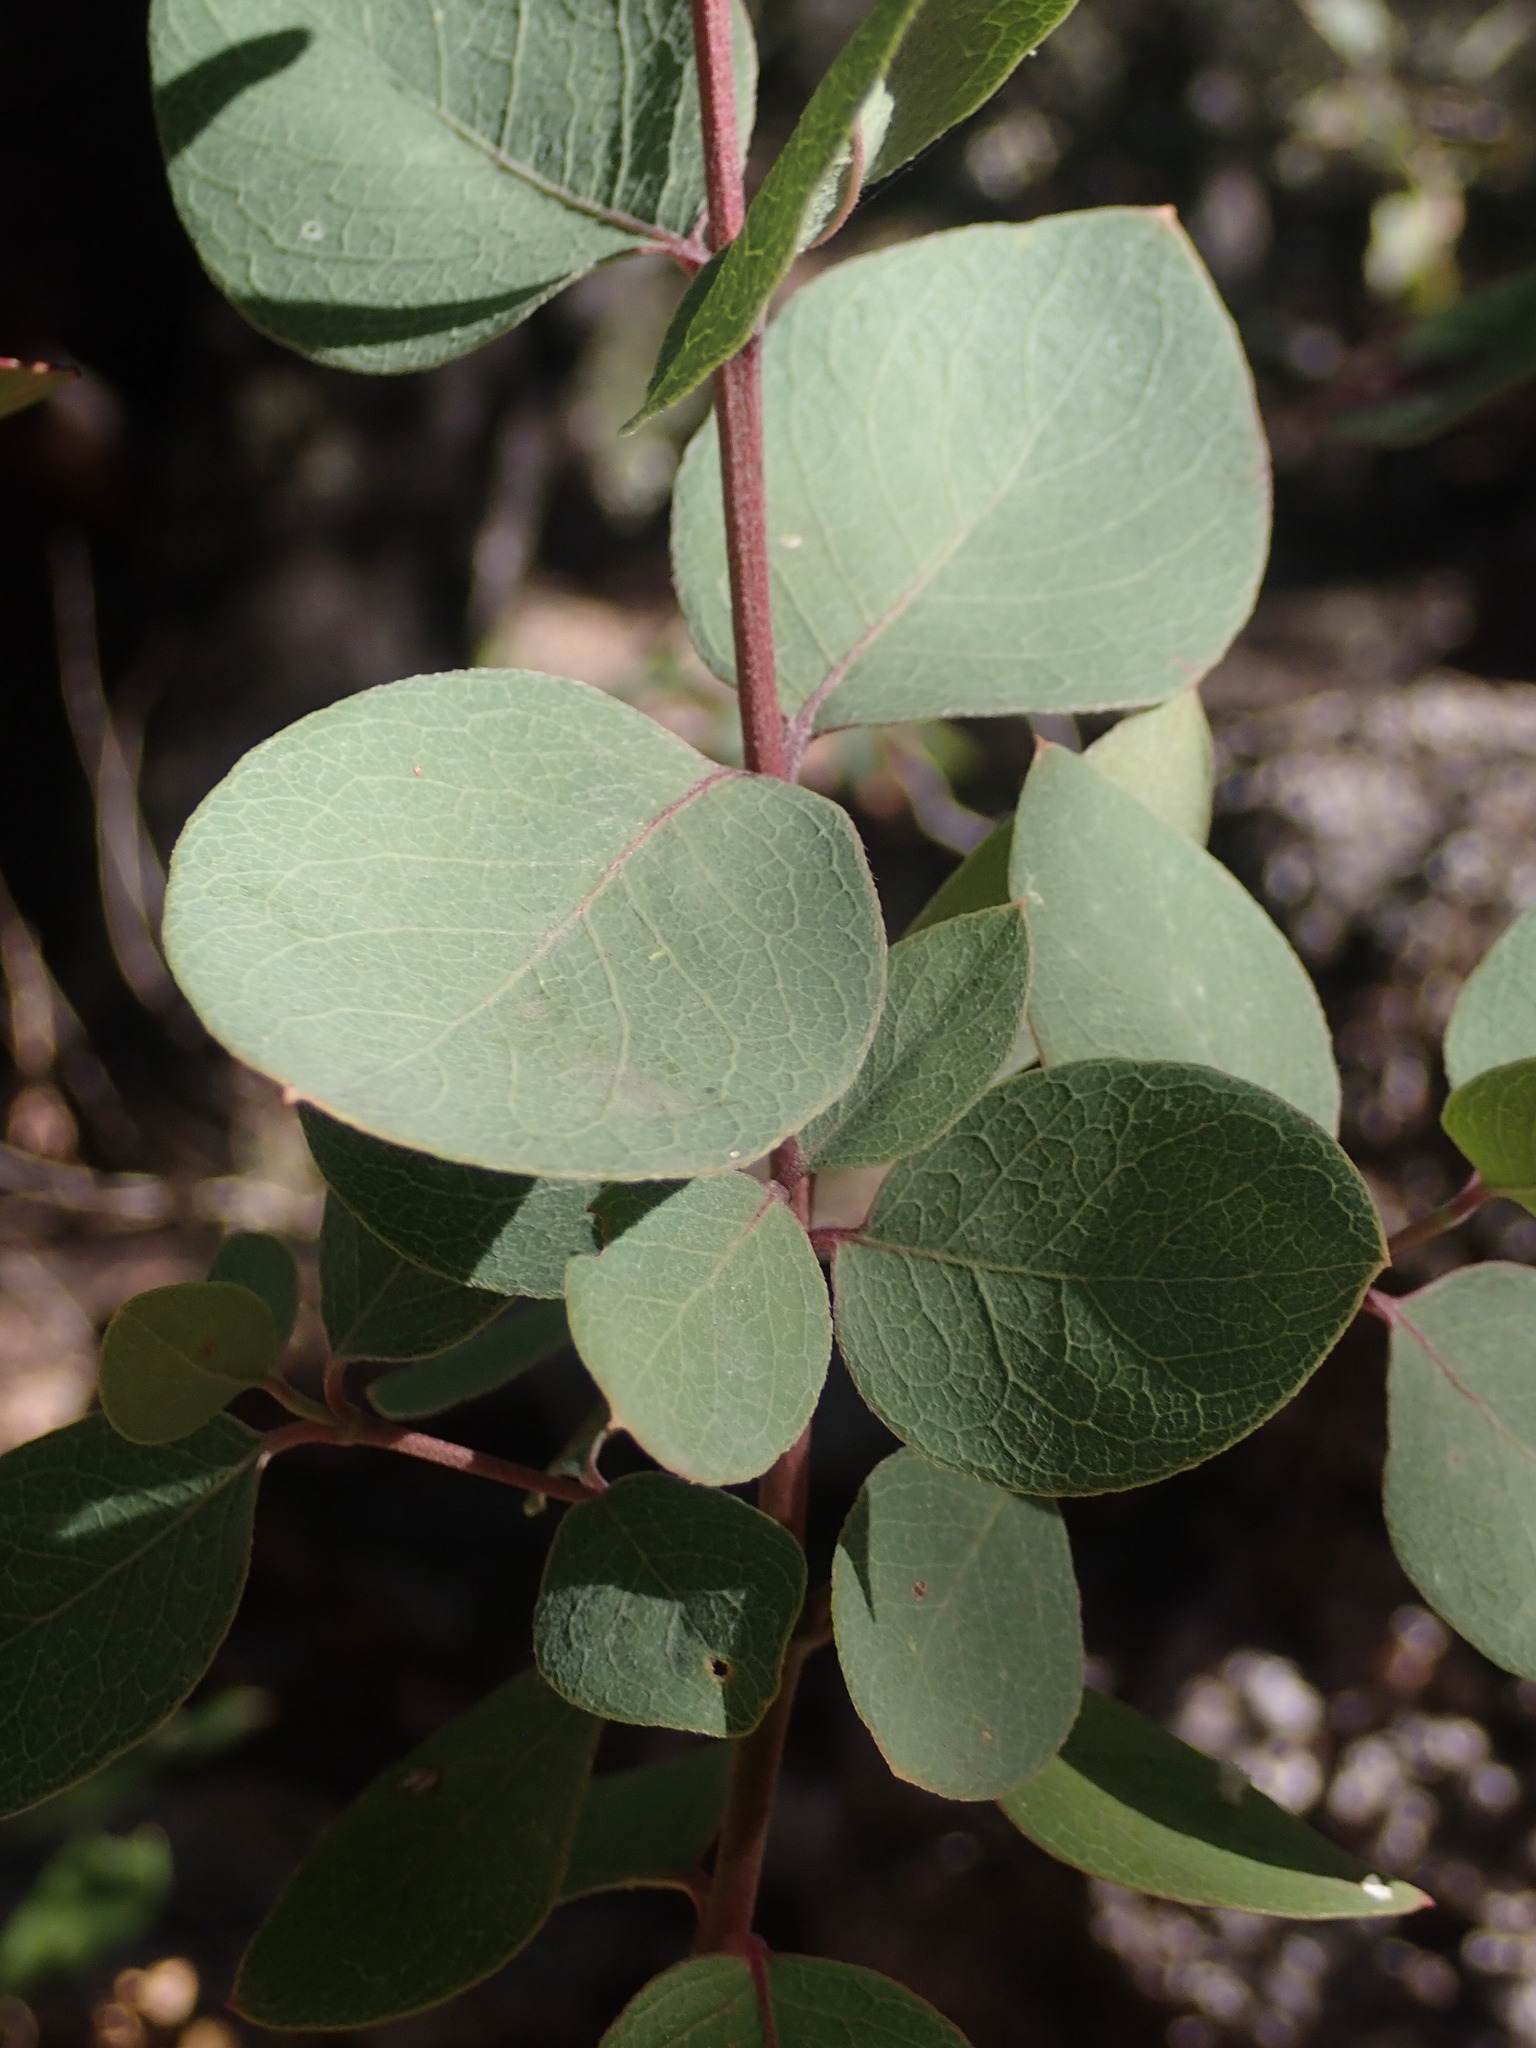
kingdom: Plantae
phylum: Tracheophyta
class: Magnoliopsida
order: Garryales
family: Garryaceae
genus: Garrya
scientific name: Garrya wrightii
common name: Wright's silktassel
